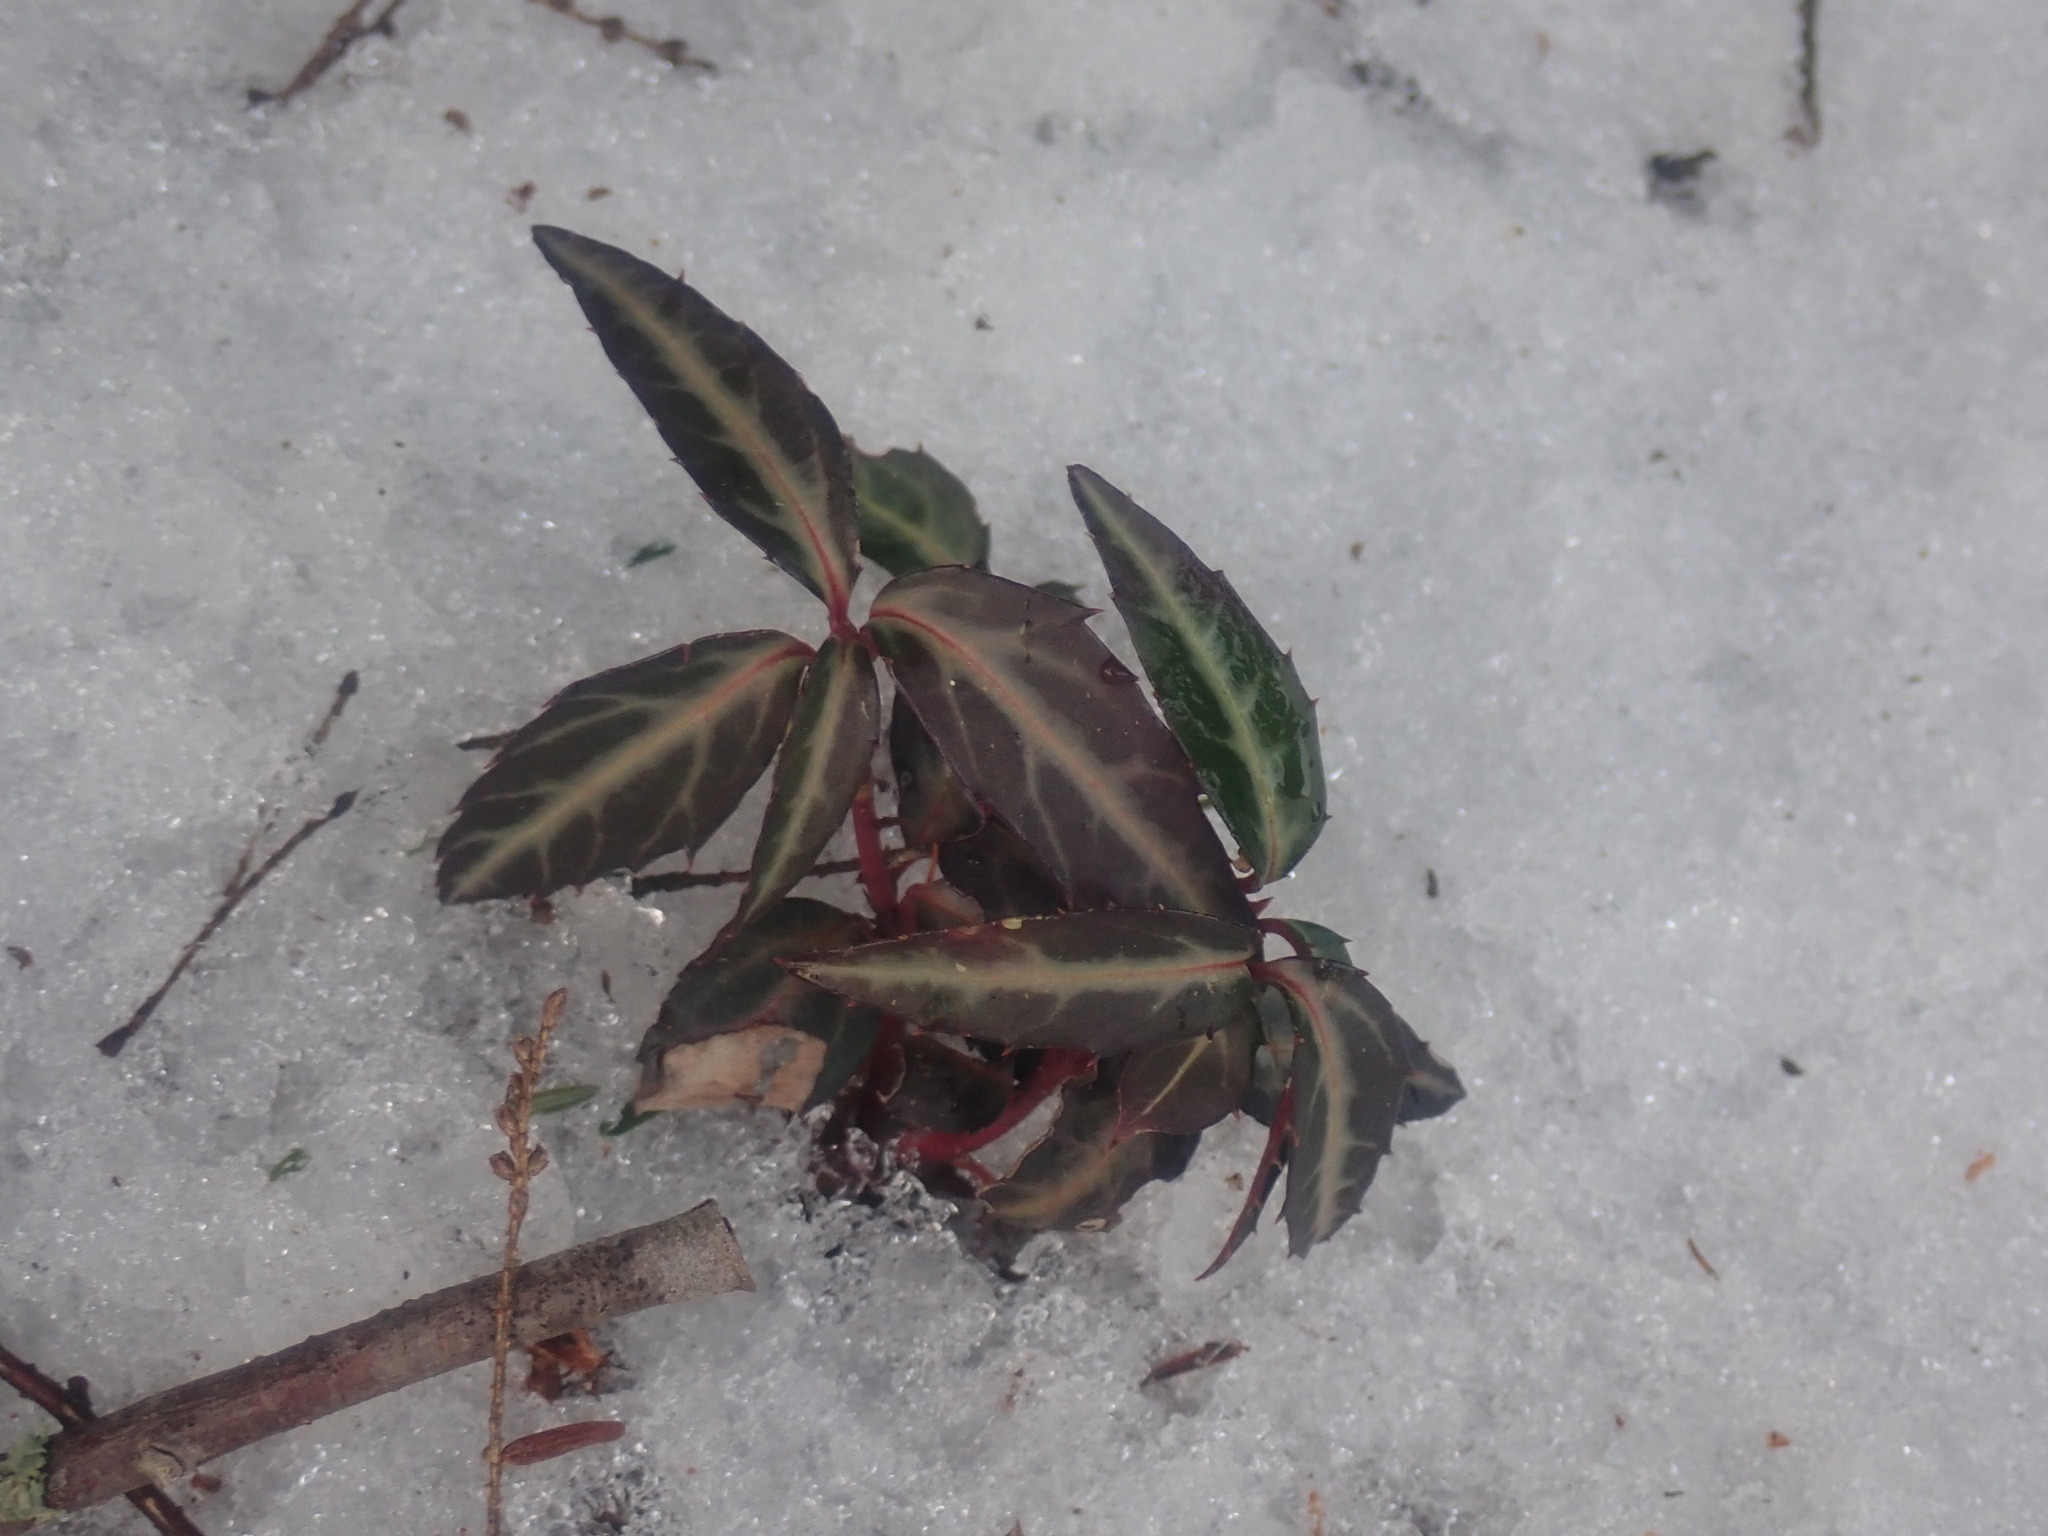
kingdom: Plantae
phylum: Tracheophyta
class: Magnoliopsida
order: Ericales
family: Ericaceae
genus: Chimaphila
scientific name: Chimaphila maculata
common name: Spotted pipsissewa
